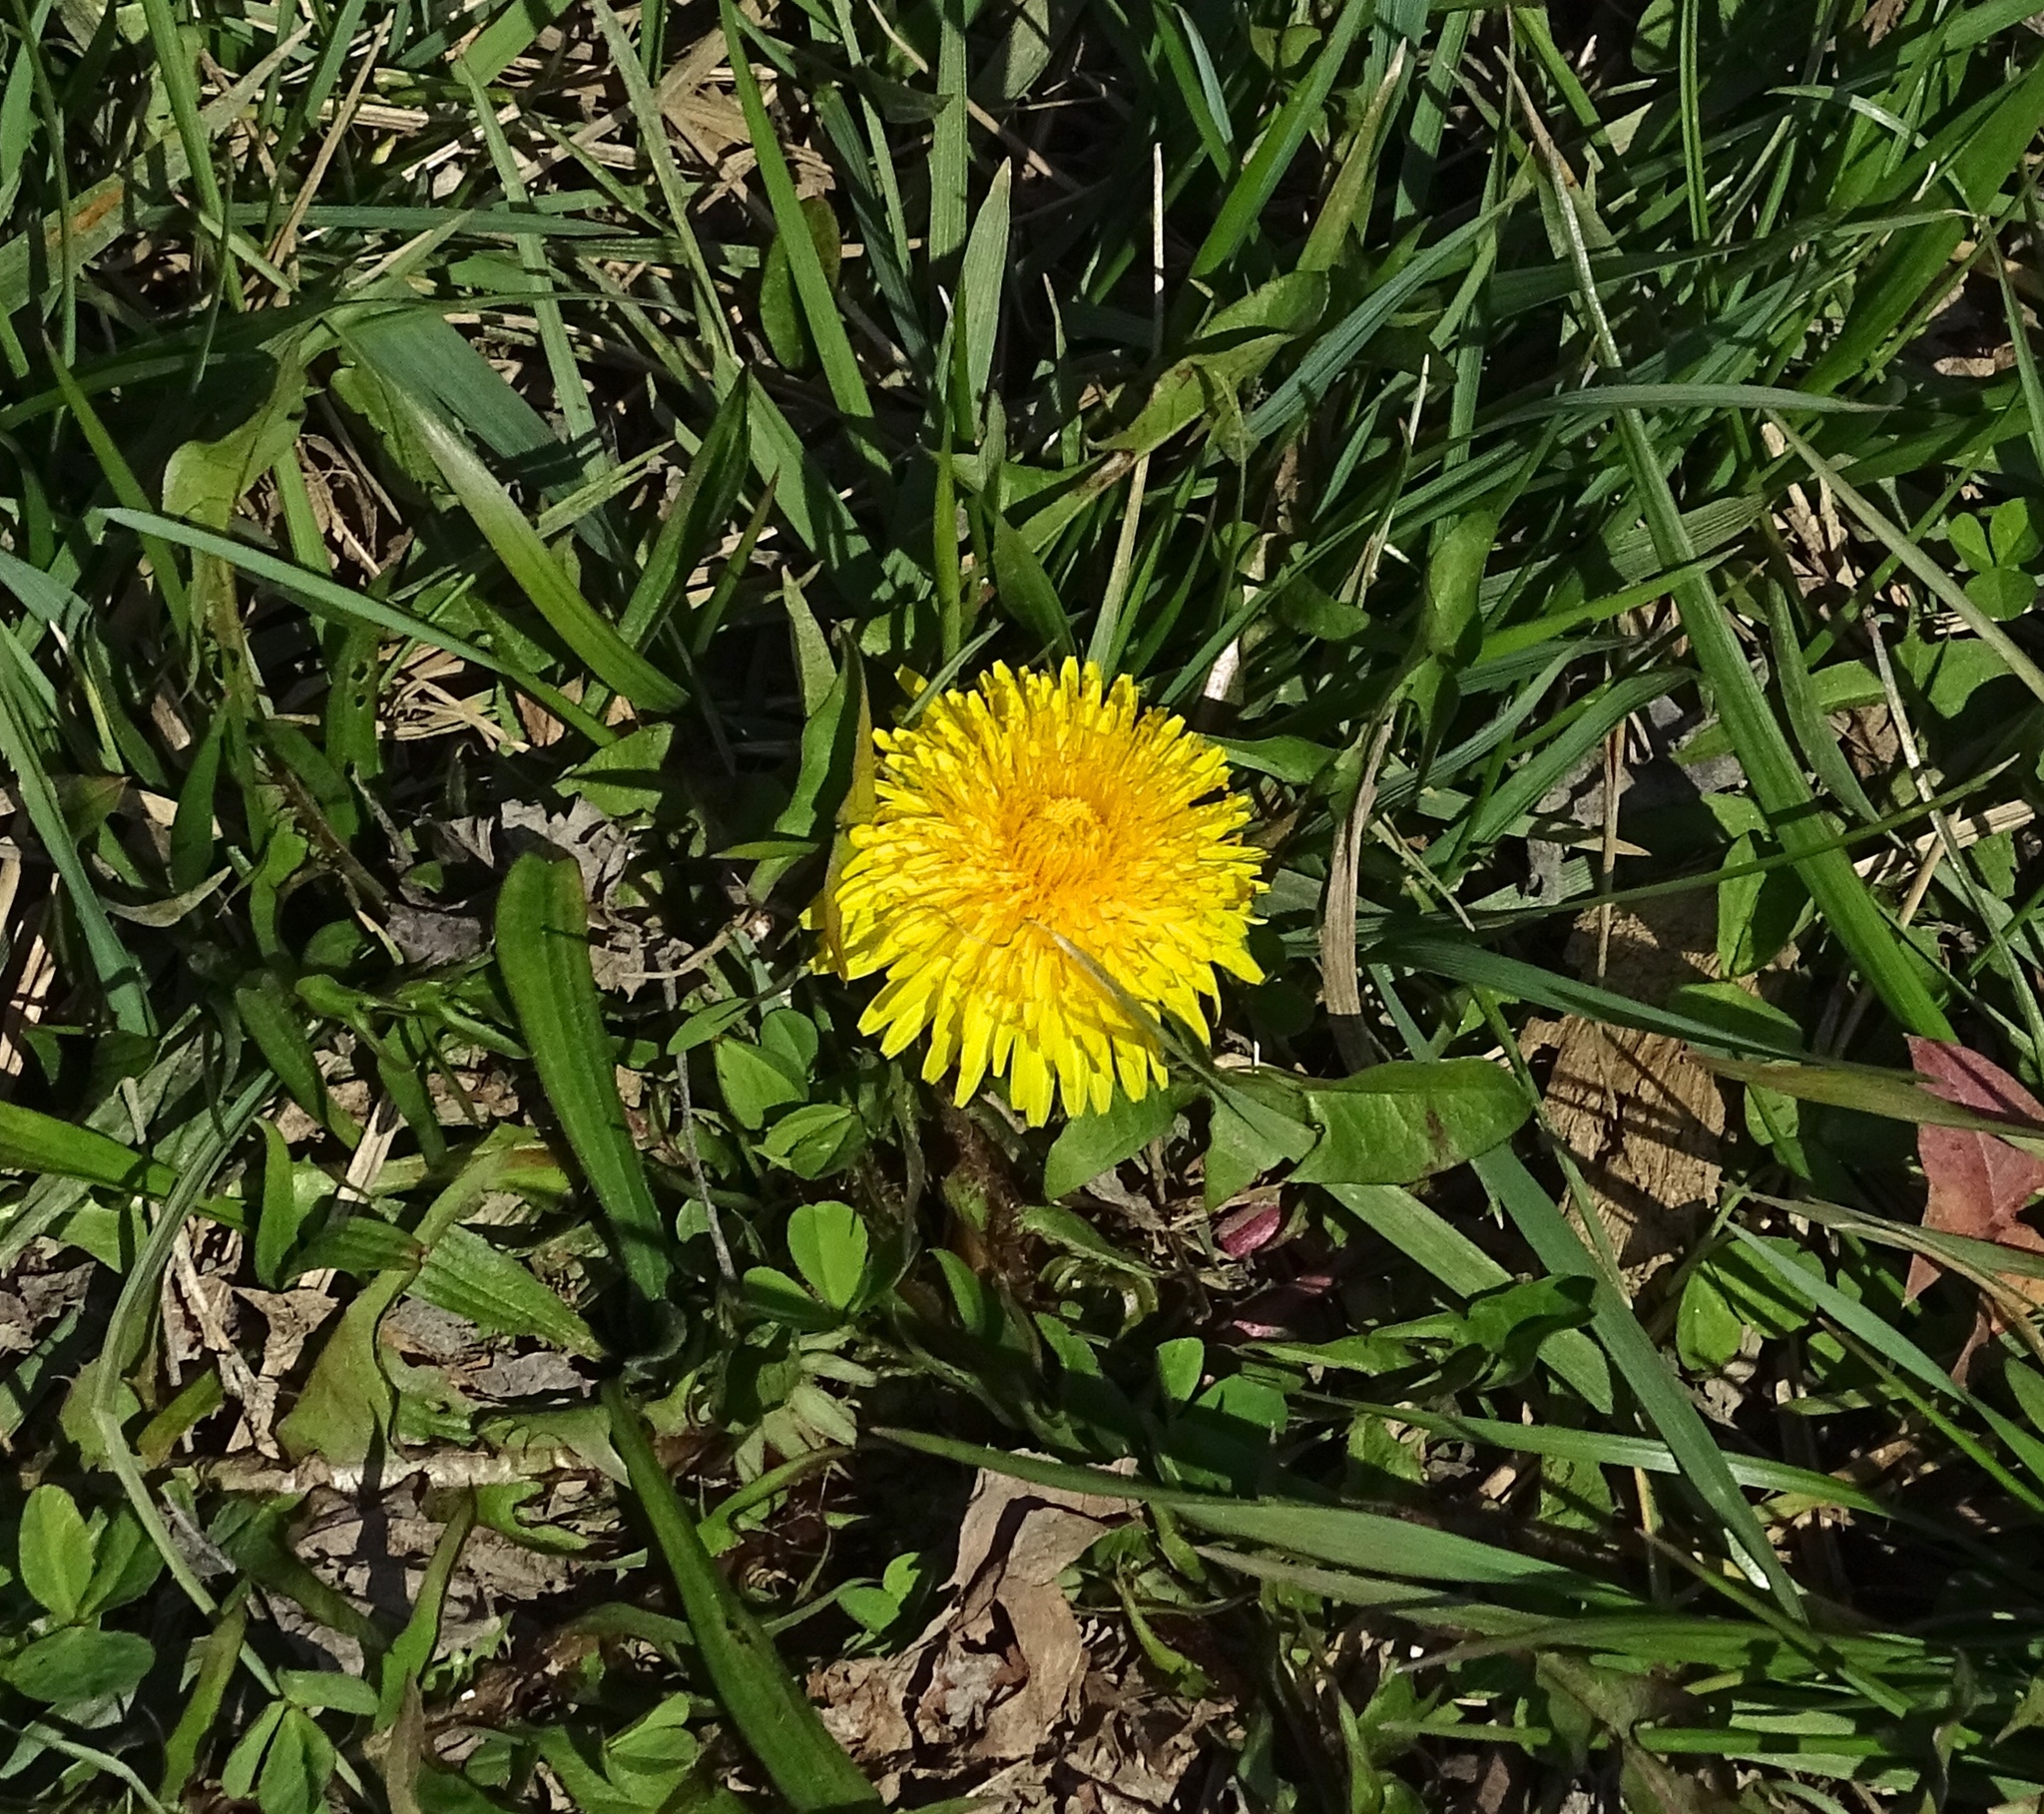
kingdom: Plantae
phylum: Tracheophyta
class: Magnoliopsida
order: Asterales
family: Asteraceae
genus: Taraxacum
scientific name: Taraxacum officinale
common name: Common dandelion
